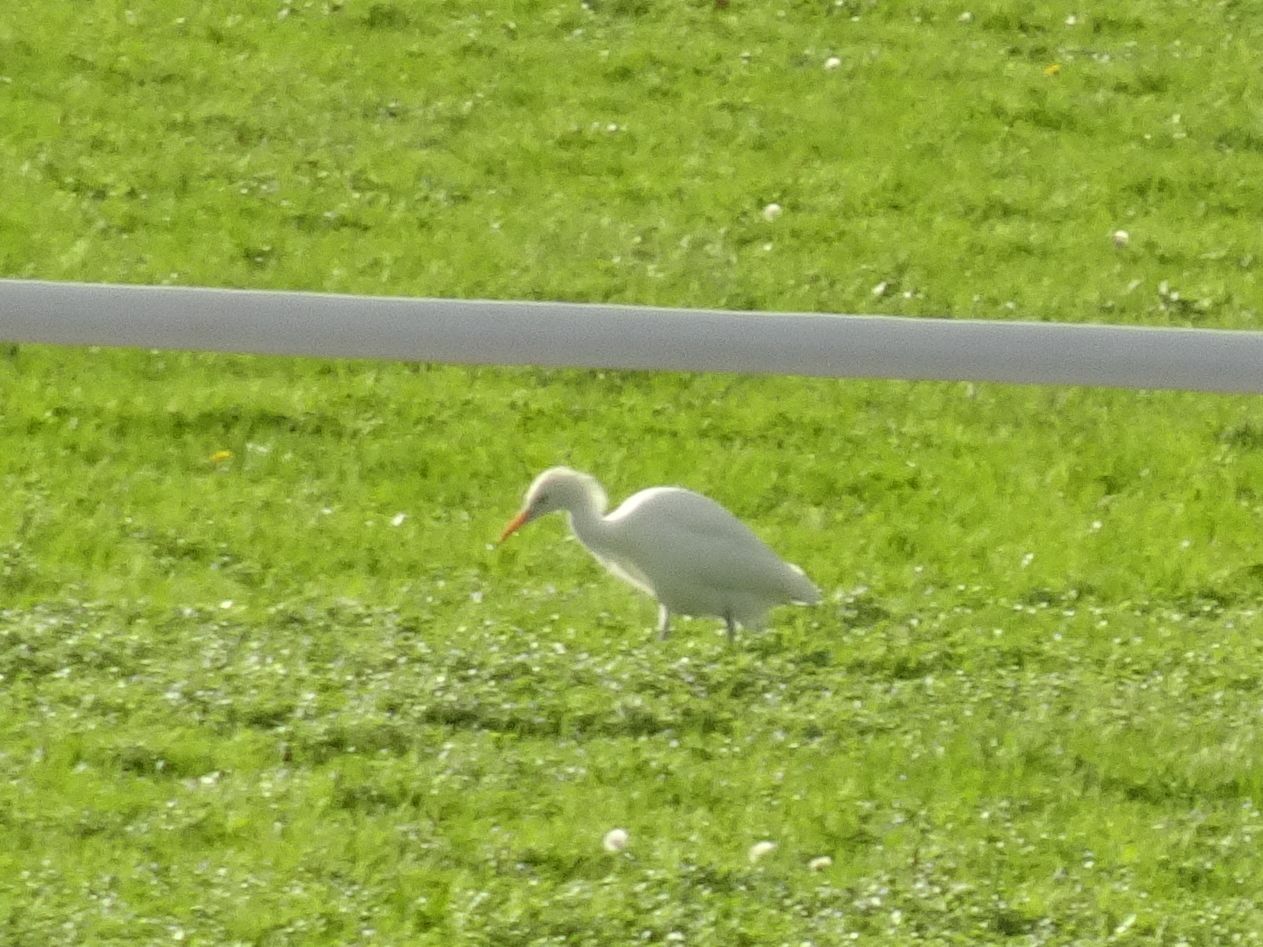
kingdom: Animalia
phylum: Chordata
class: Aves
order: Pelecaniformes
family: Ardeidae
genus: Bubulcus
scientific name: Bubulcus ibis
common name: Cattle egret
